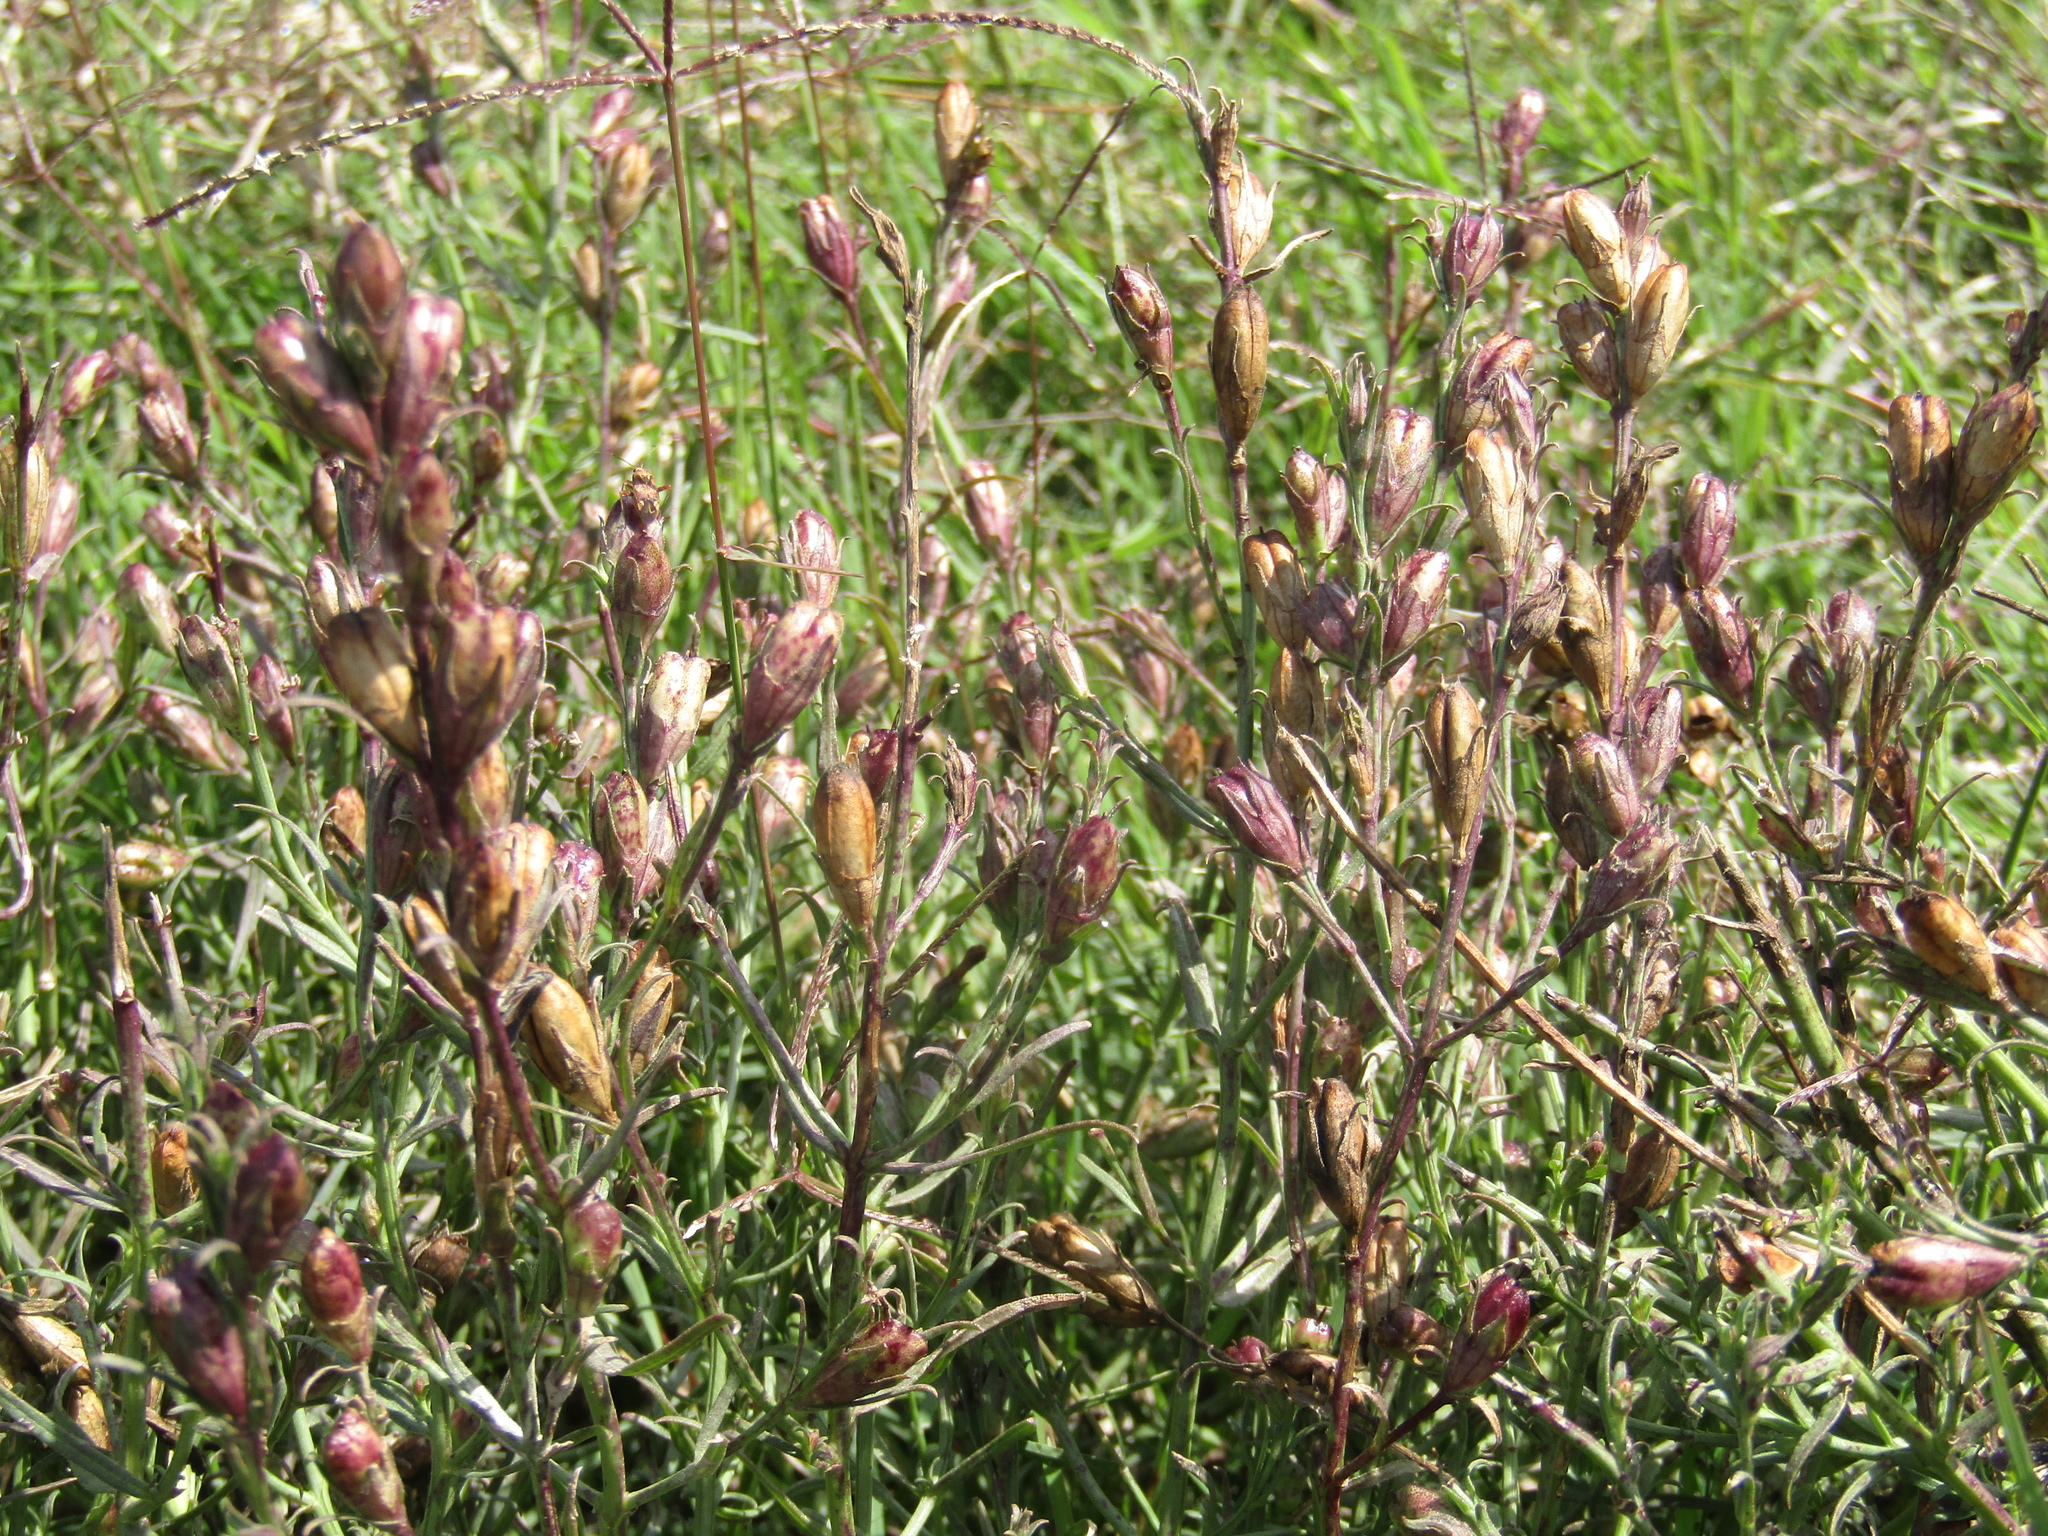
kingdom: Plantae
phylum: Tracheophyta
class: Magnoliopsida
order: Lamiales
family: Orobanchaceae
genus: Agalinis
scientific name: Agalinis communis
